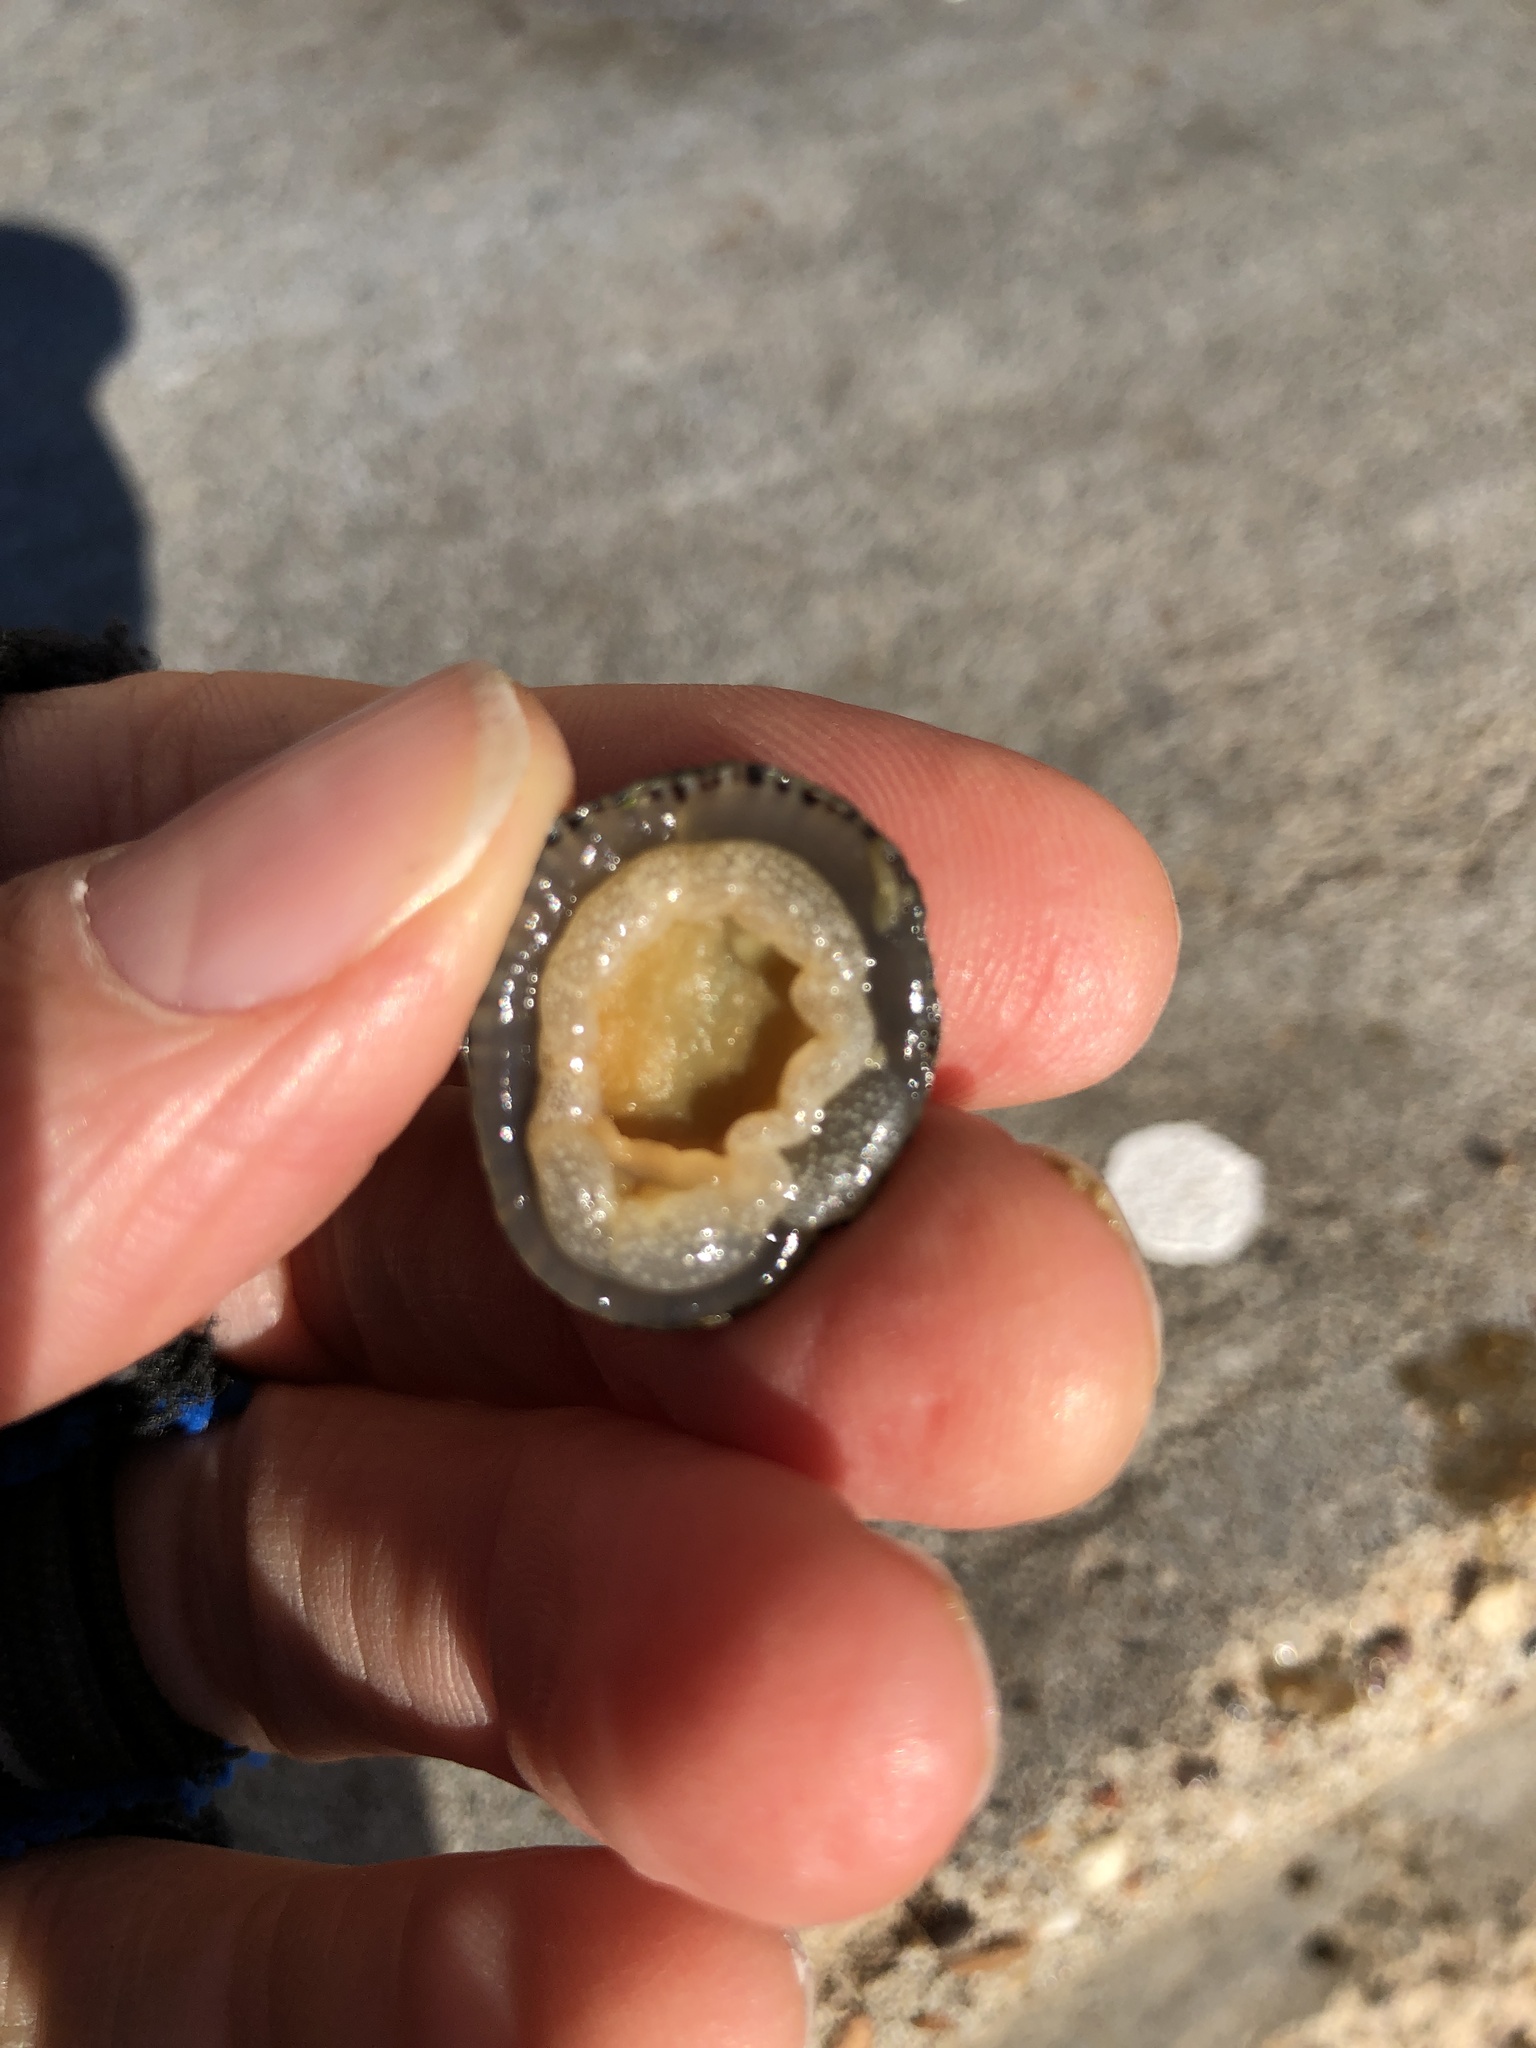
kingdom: Animalia
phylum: Mollusca
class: Gastropoda
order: Siphonariida
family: Siphonariidae
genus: Siphonaria
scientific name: Siphonaria naufragum
